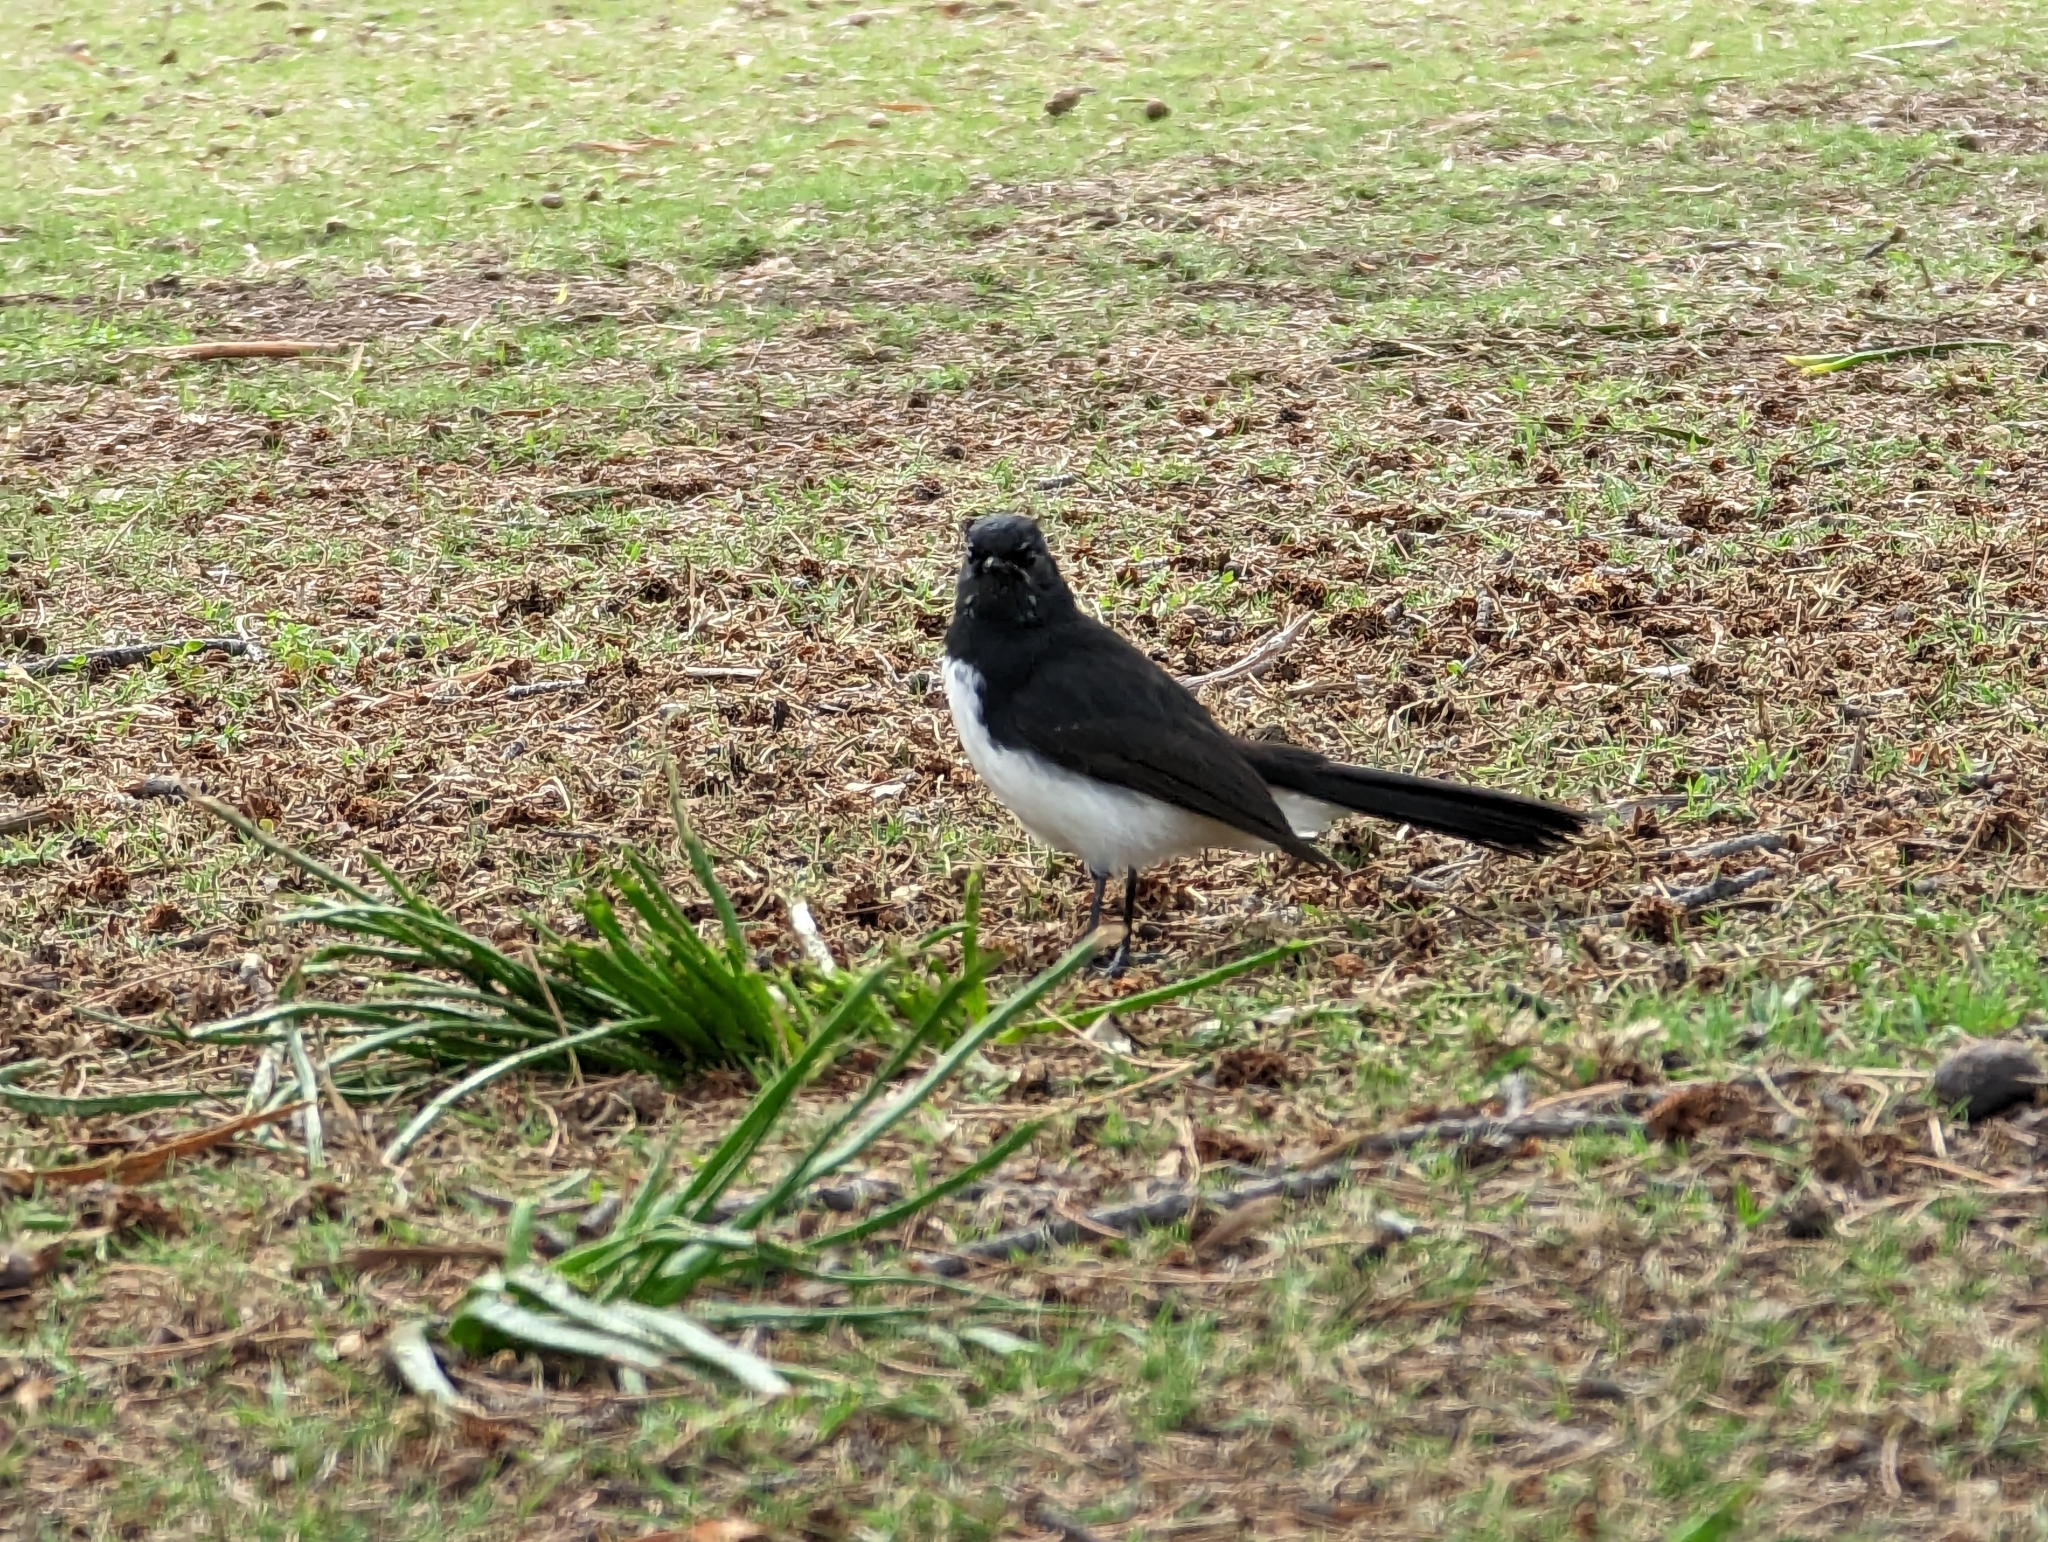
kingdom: Animalia
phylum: Chordata
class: Aves
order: Passeriformes
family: Rhipiduridae
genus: Rhipidura
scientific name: Rhipidura leucophrys
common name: Willie wagtail
